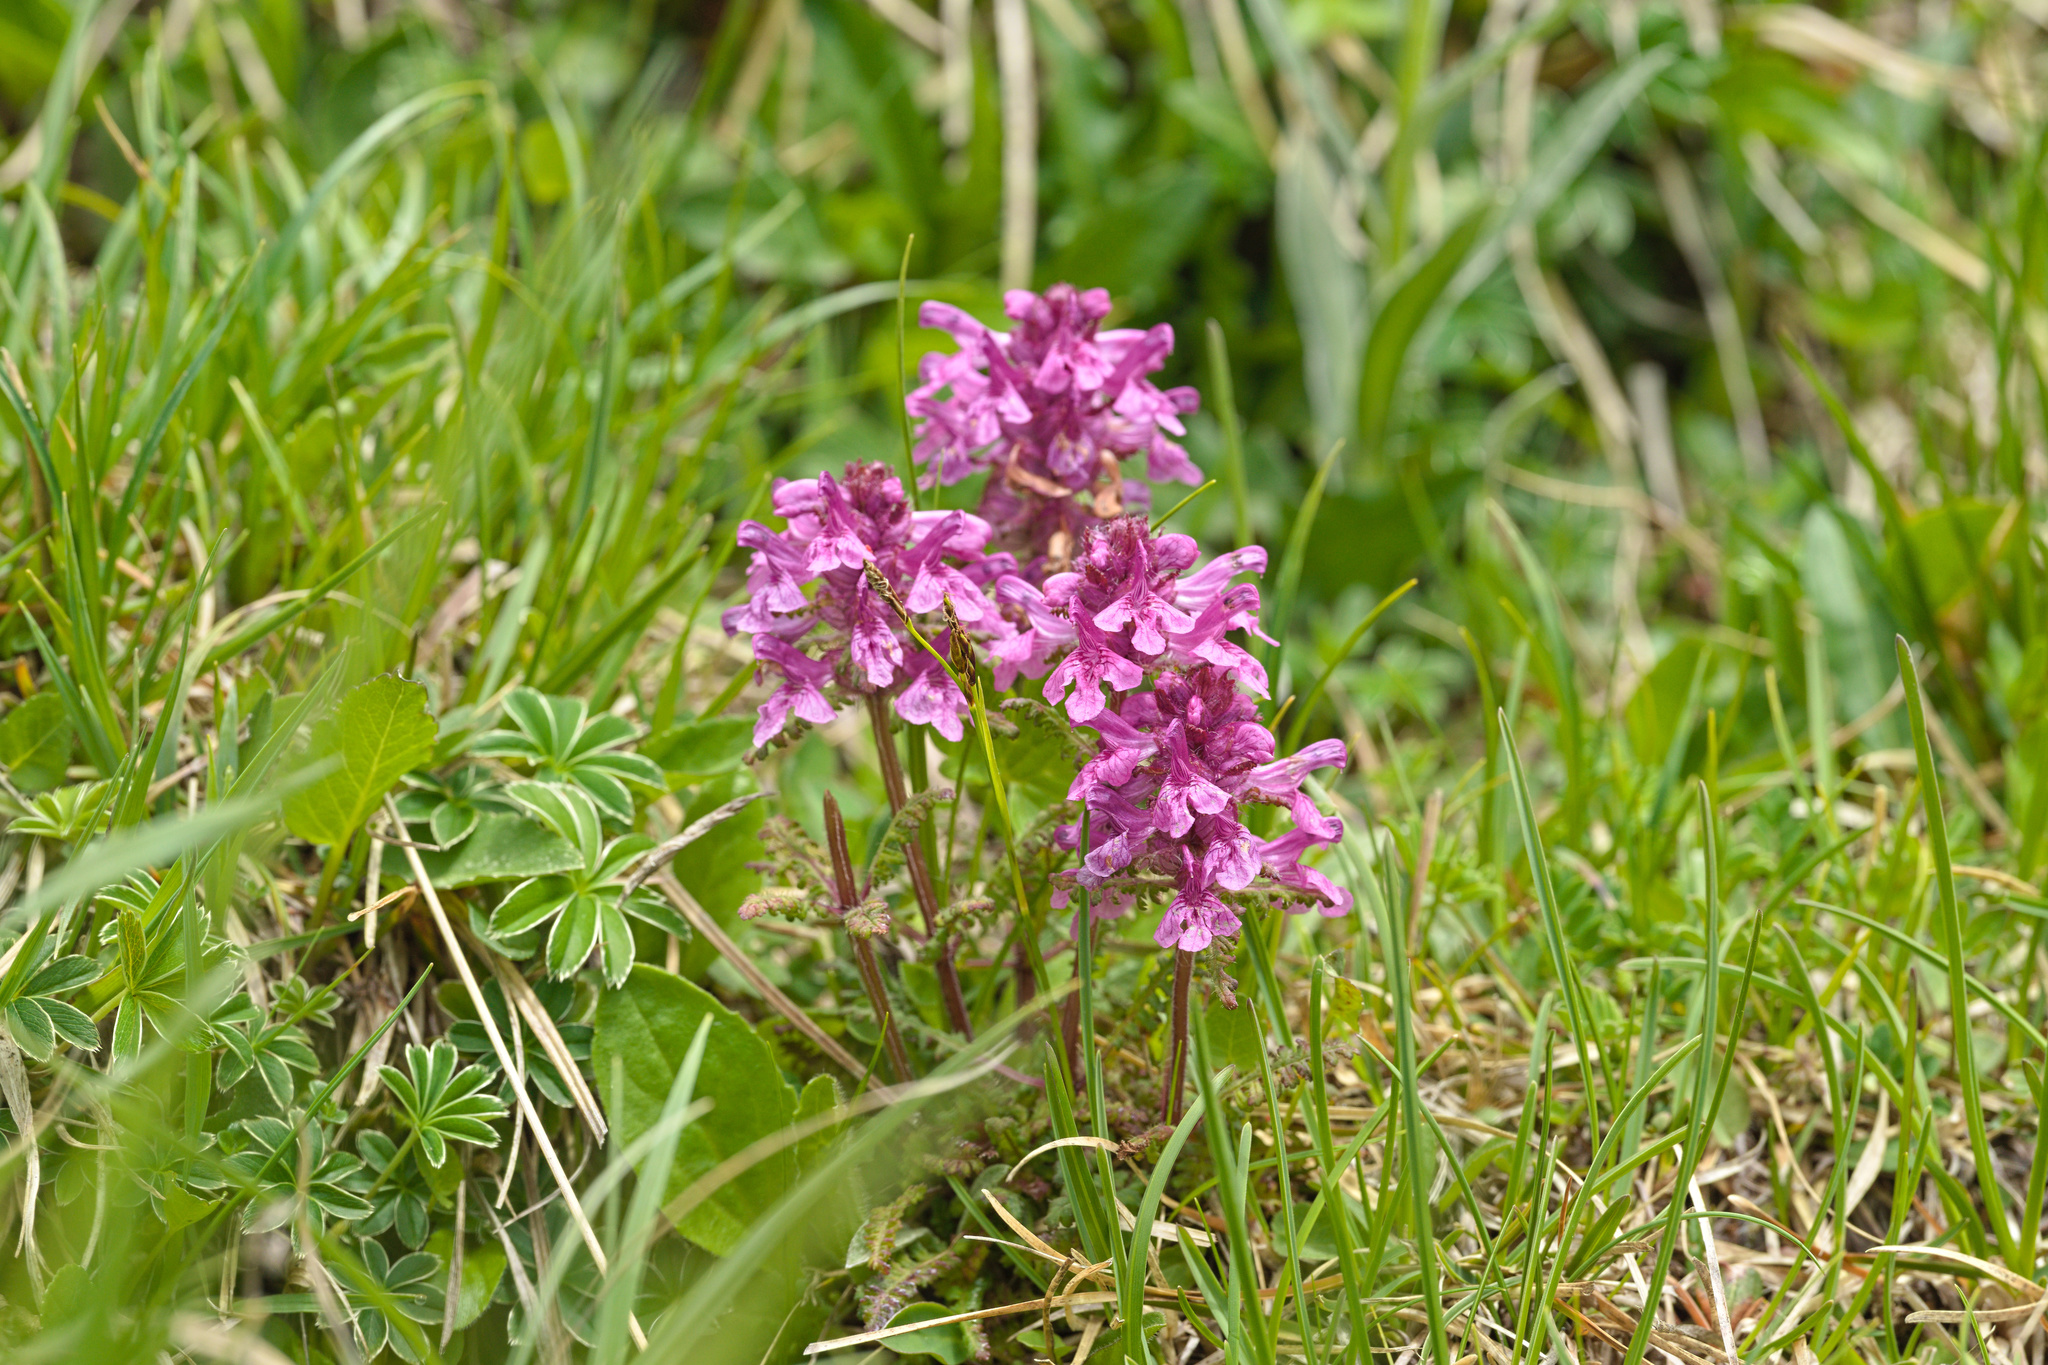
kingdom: Plantae
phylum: Tracheophyta
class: Magnoliopsida
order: Lamiales
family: Orobanchaceae
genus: Pedicularis
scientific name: Pedicularis verticillata
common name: Whorled lousewort
